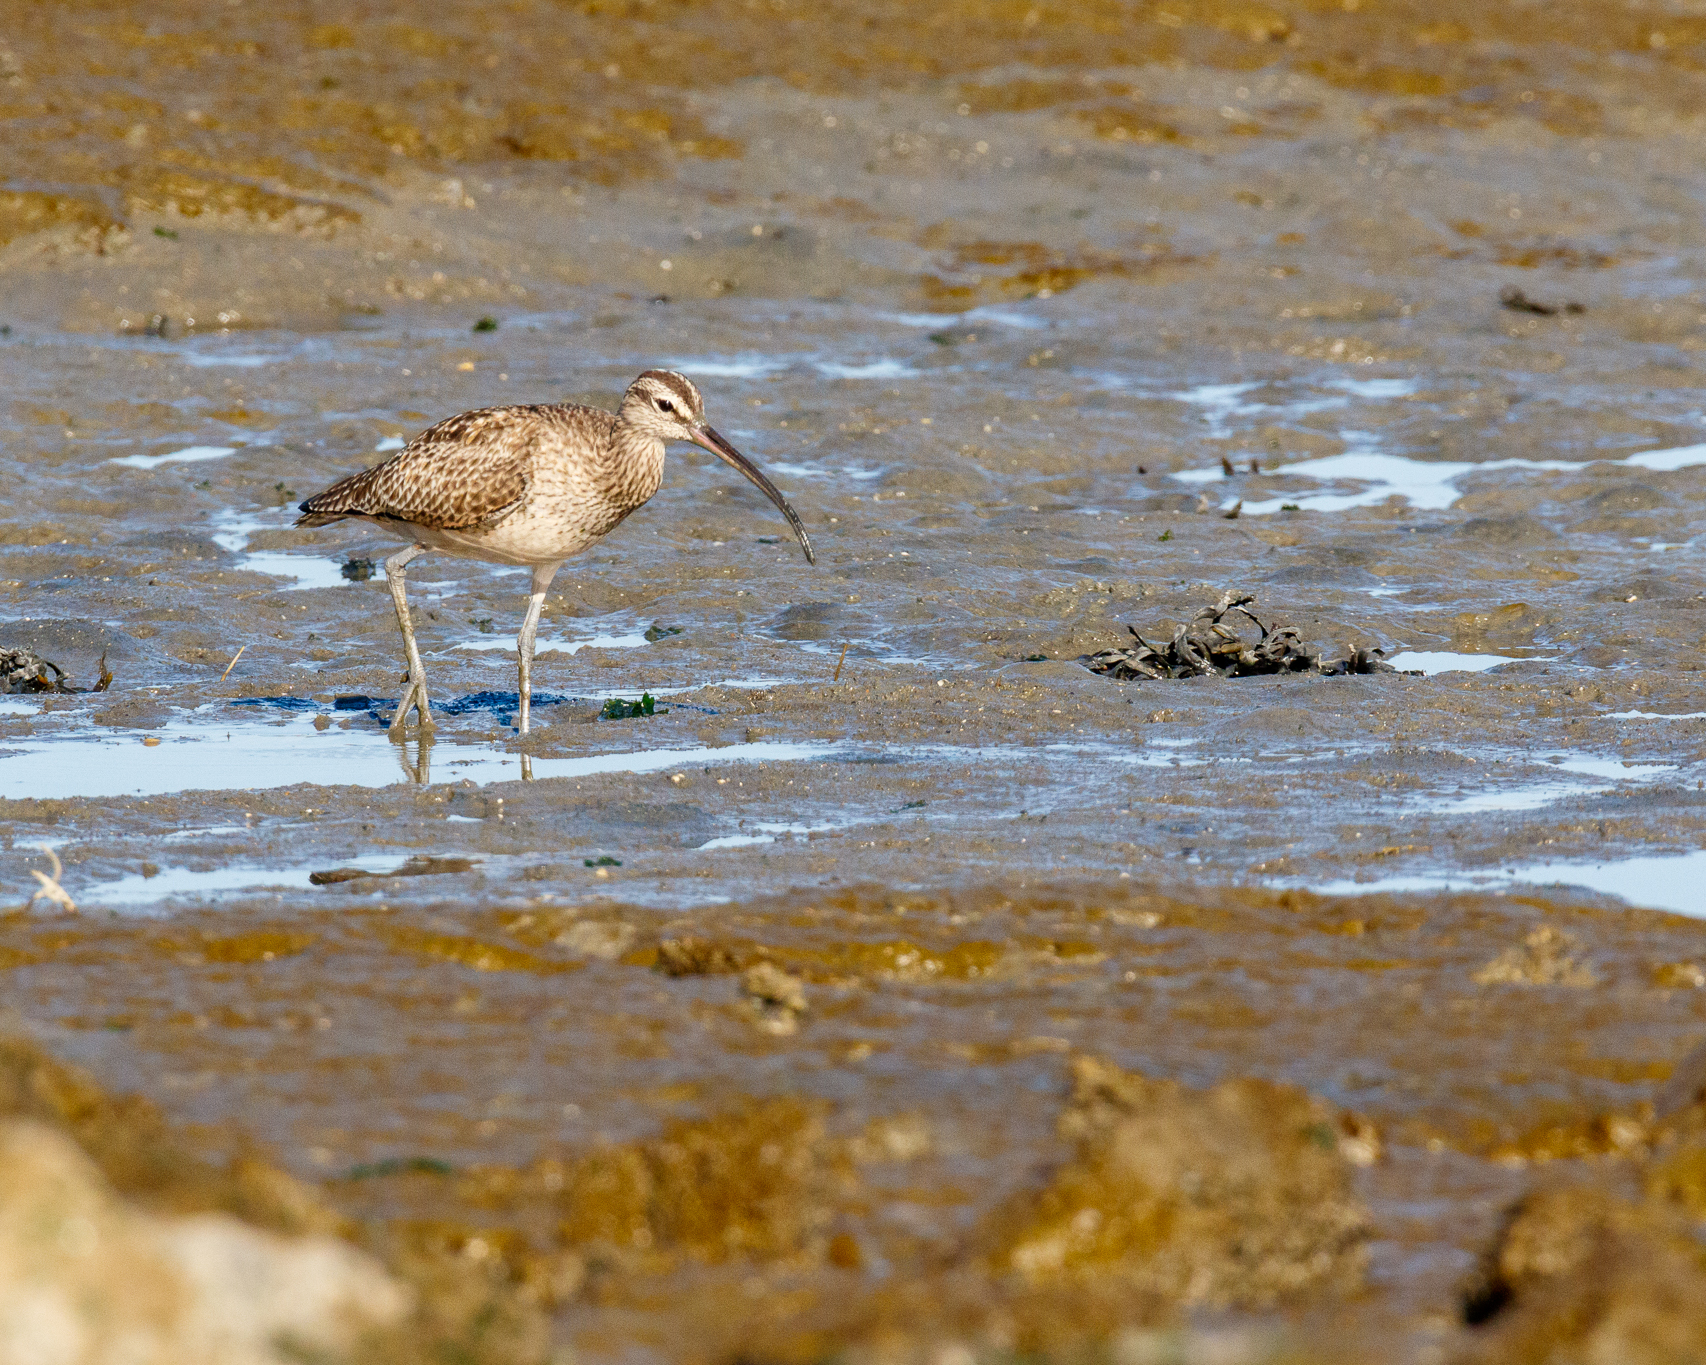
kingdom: Animalia
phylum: Chordata
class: Aves
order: Charadriiformes
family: Scolopacidae
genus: Numenius
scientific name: Numenius phaeopus
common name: Whimbrel
